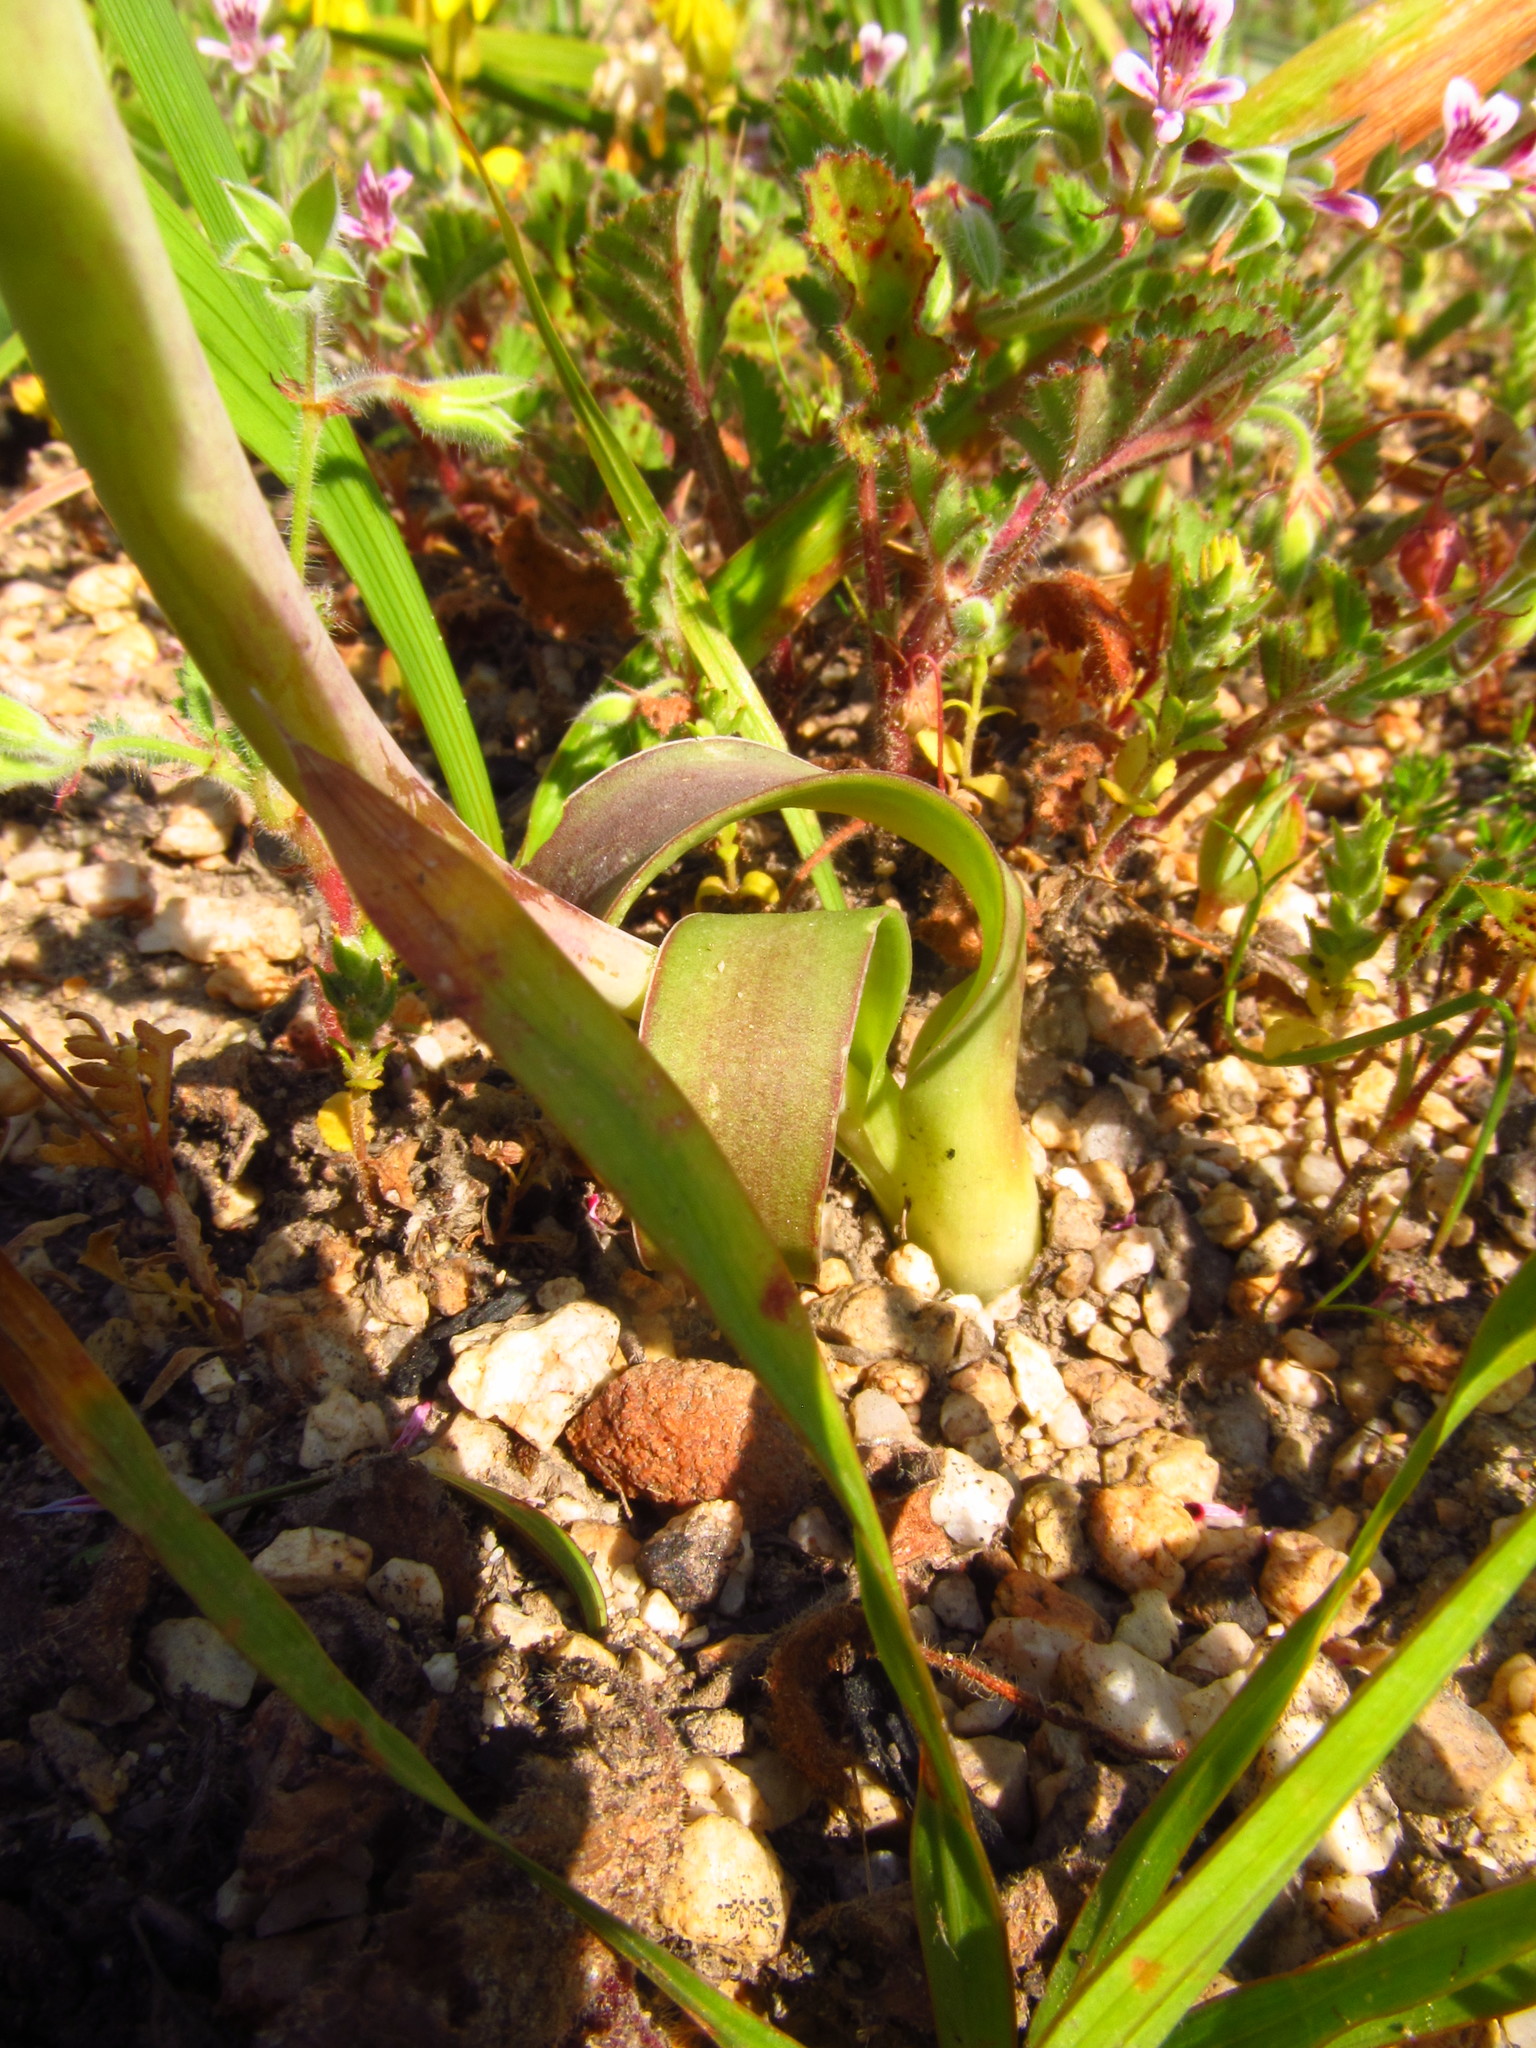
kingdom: Plantae
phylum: Tracheophyta
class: Liliopsida
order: Asparagales
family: Asparagaceae
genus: Lachenalia
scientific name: Lachenalia pallida
